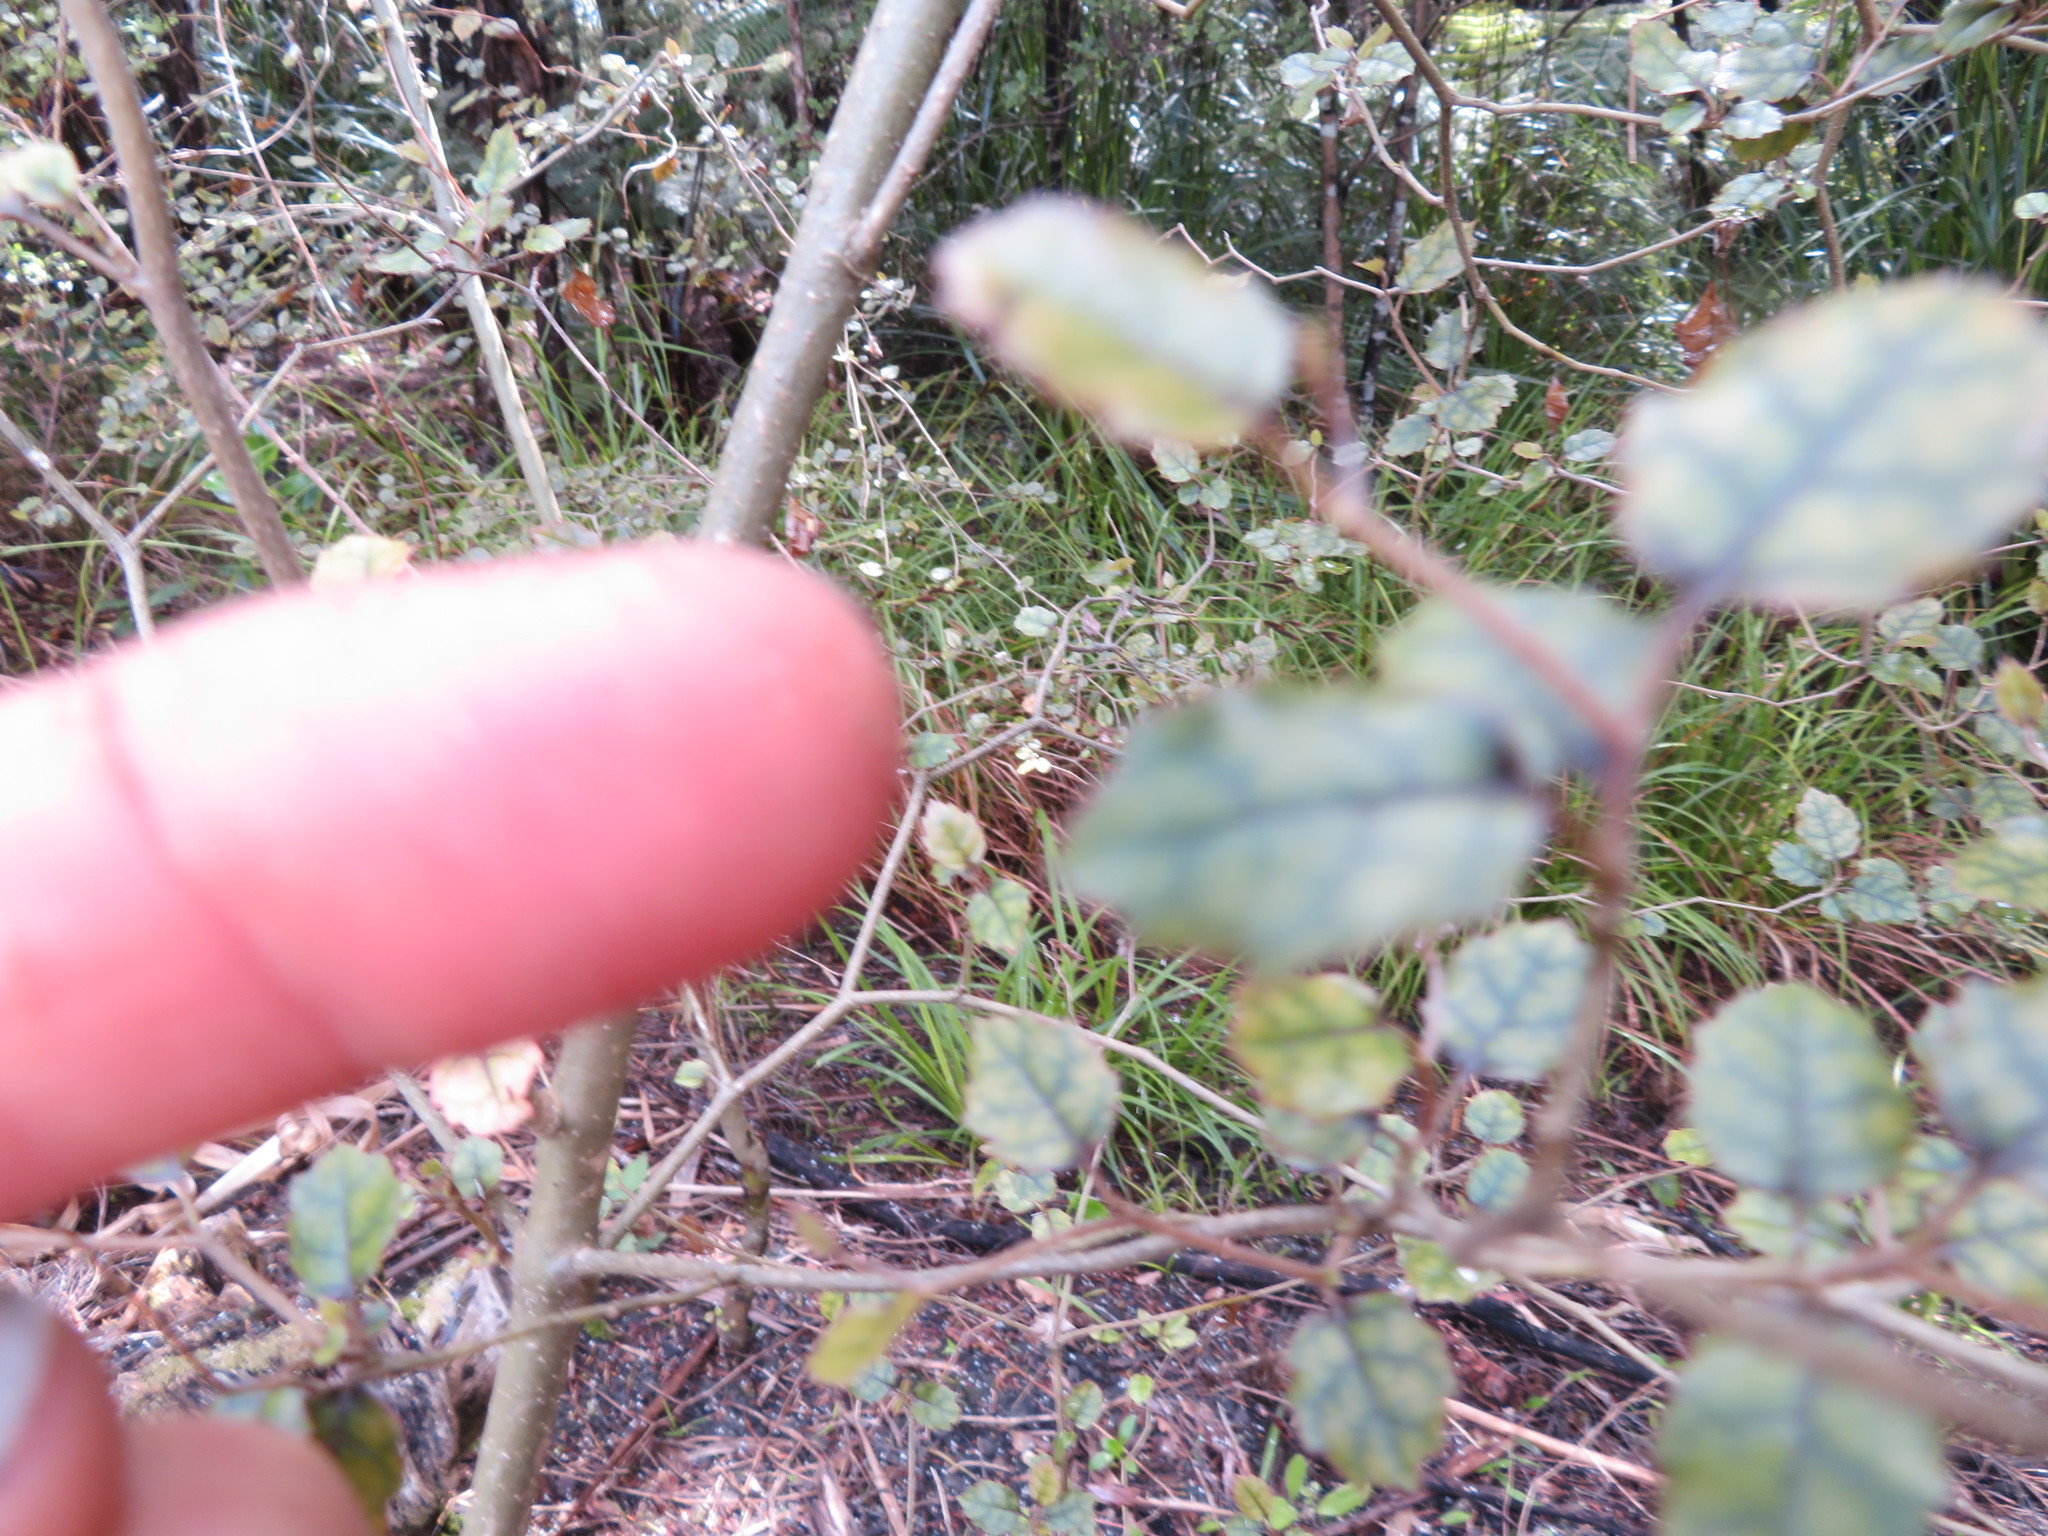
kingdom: Plantae
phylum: Tracheophyta
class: Magnoliopsida
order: Asterales
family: Rousseaceae
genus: Carpodetus
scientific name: Carpodetus serratus
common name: White mapau
